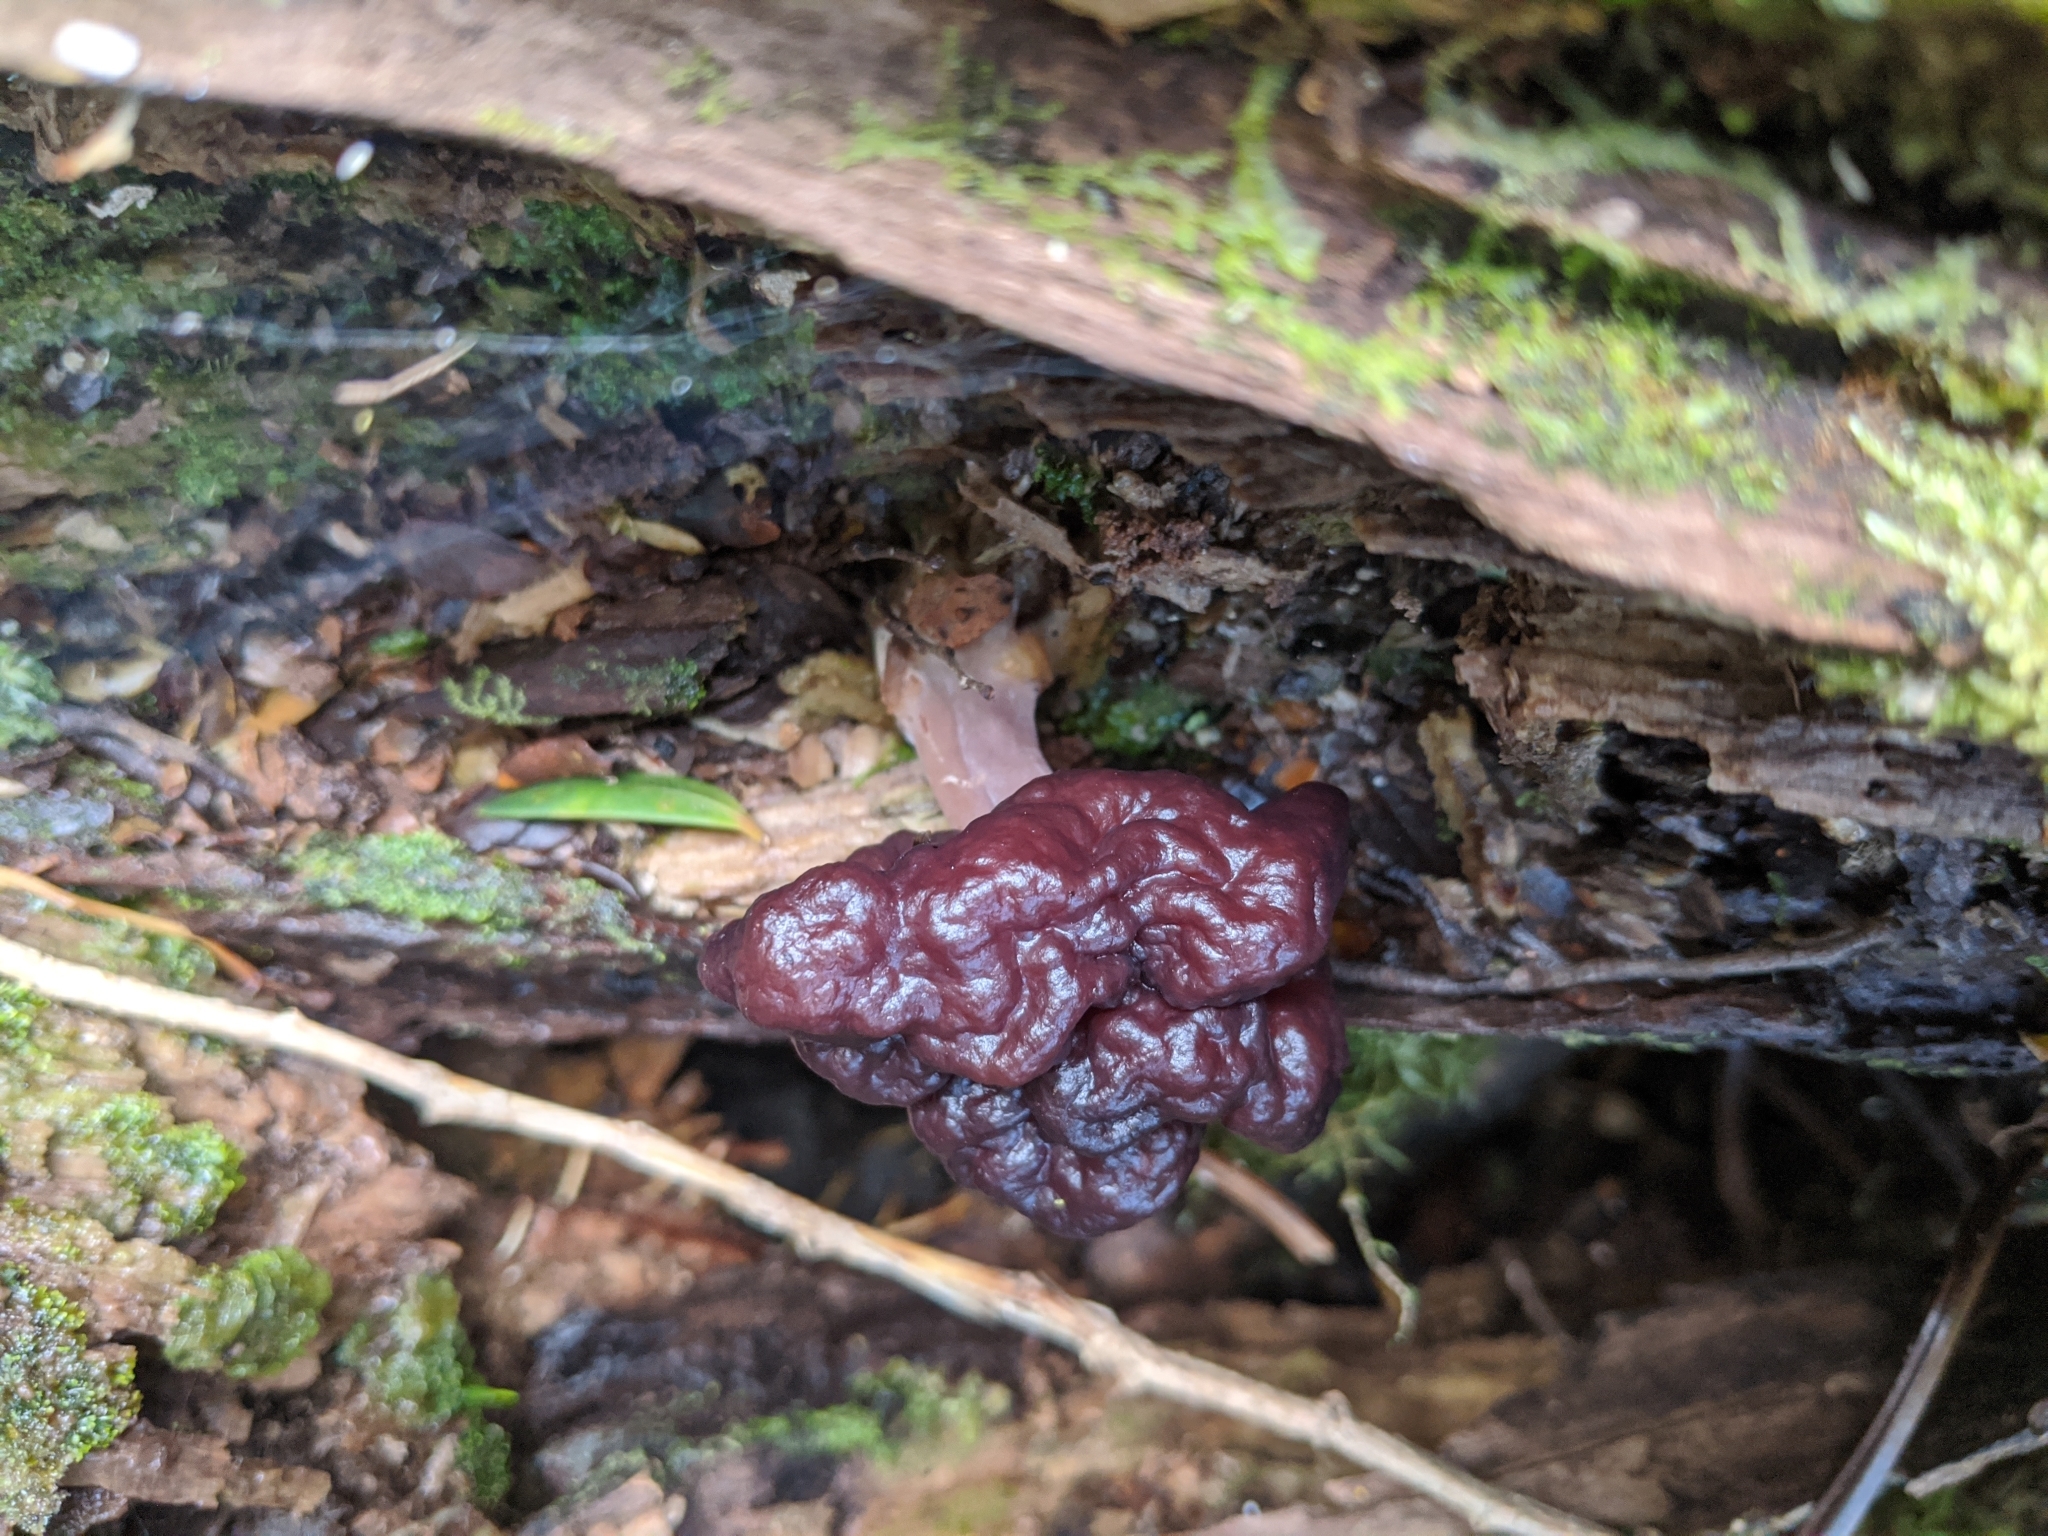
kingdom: Fungi
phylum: Ascomycota
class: Pezizomycetes
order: Pezizales
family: Discinaceae
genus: Gyromitra
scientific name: Gyromitra tasmanica
